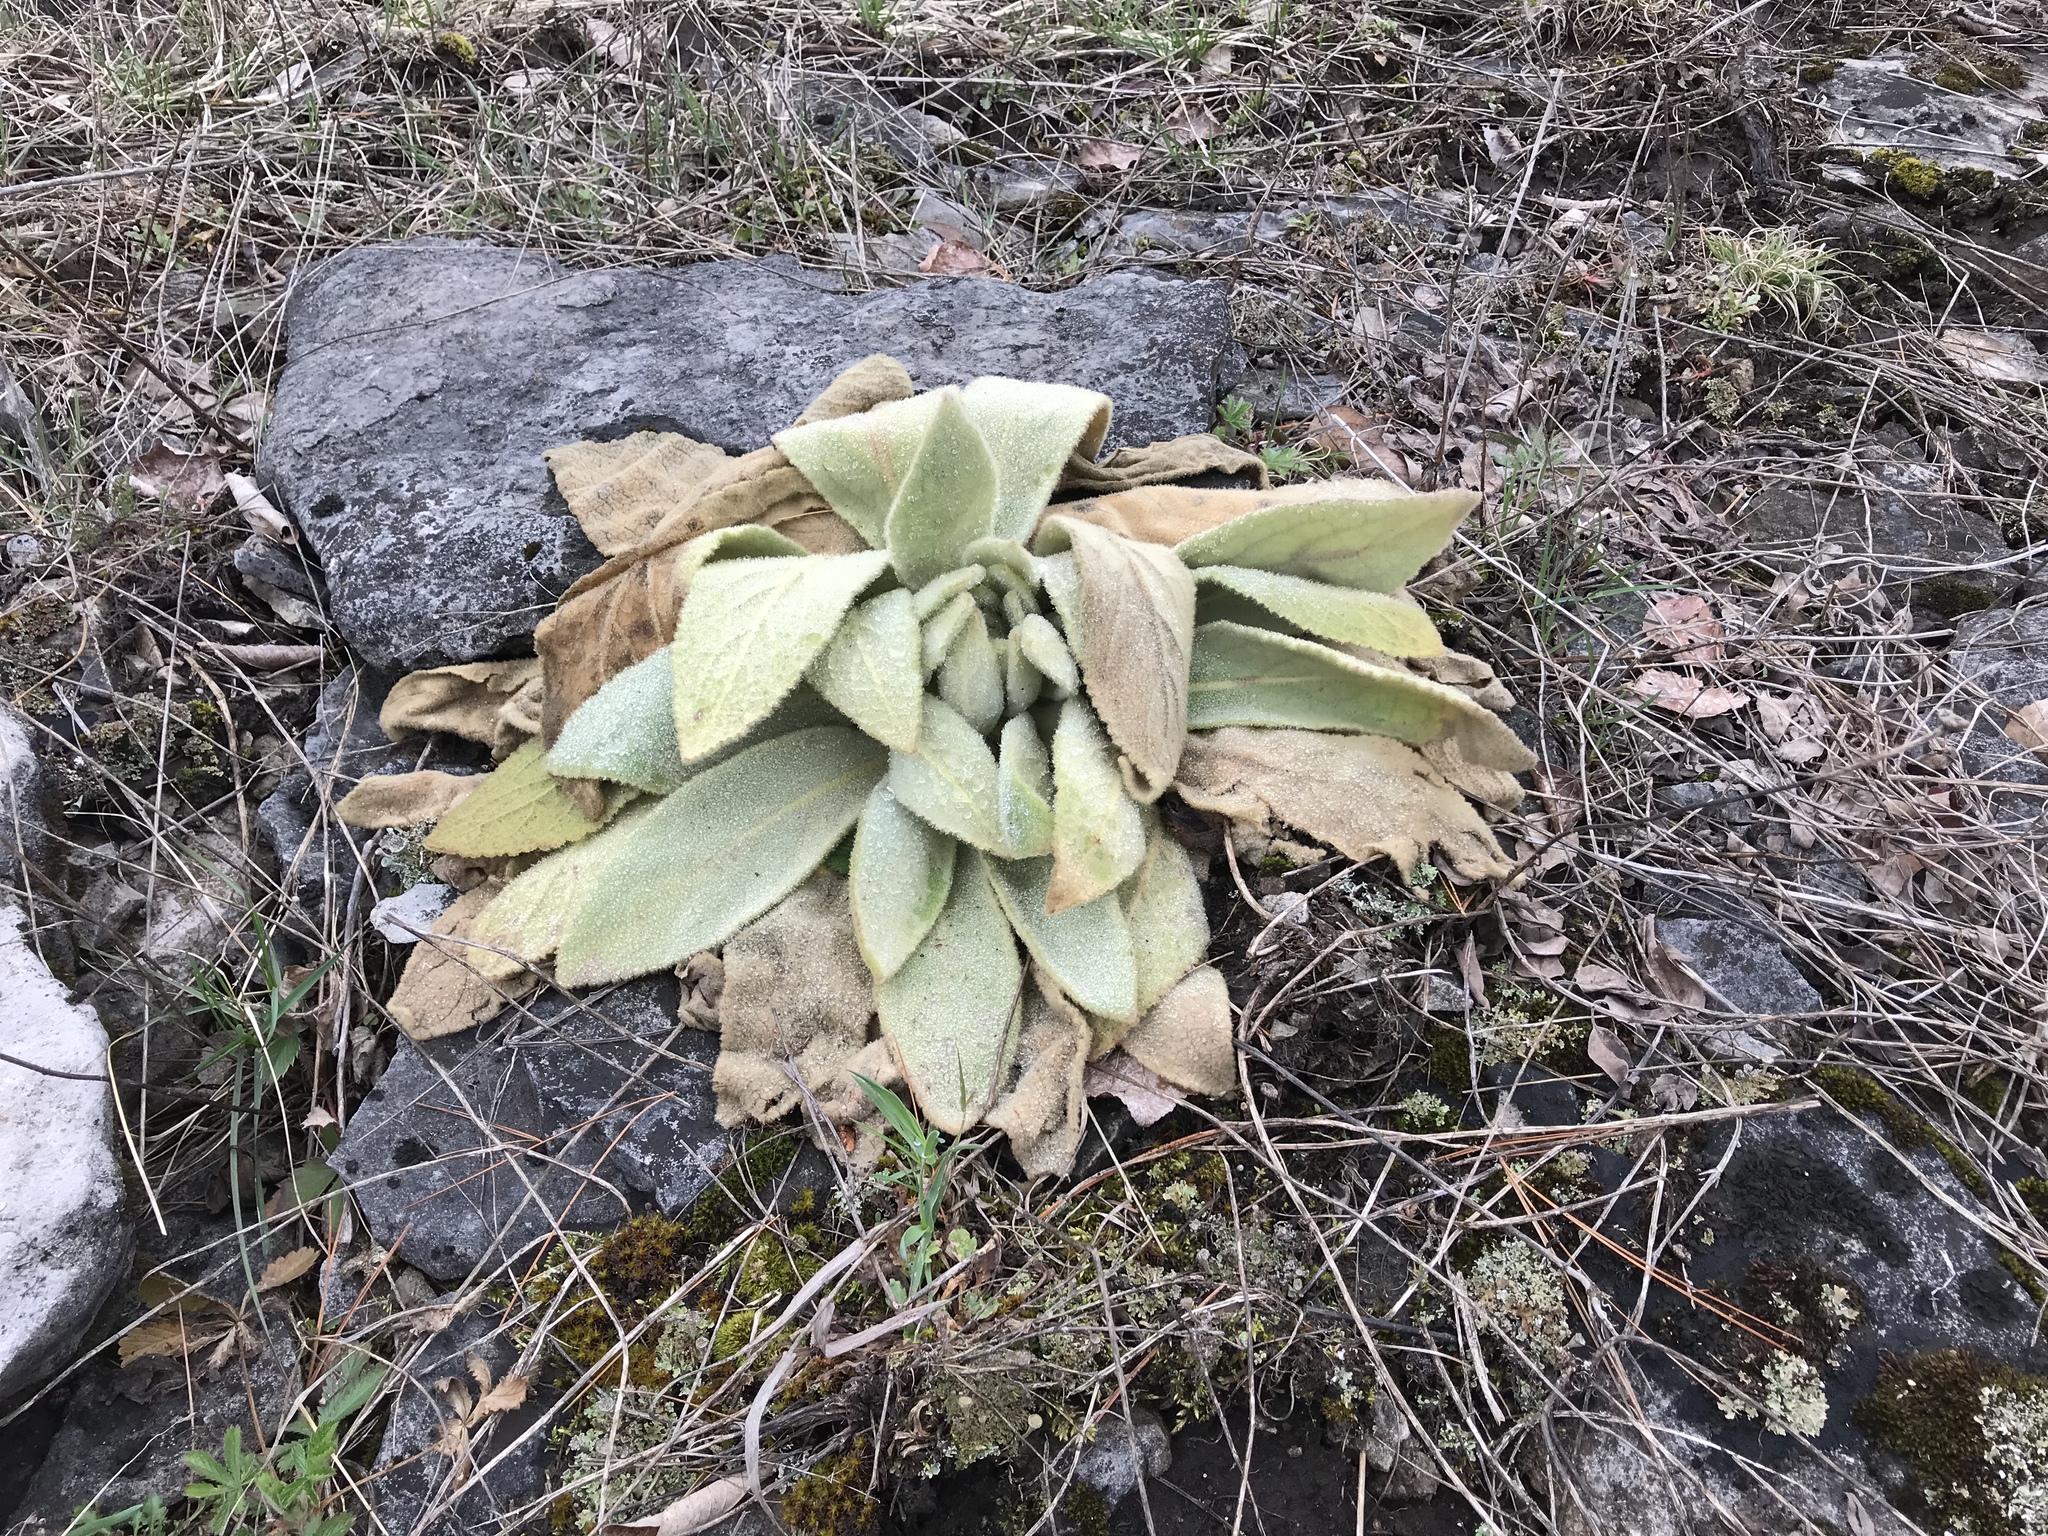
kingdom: Plantae
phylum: Tracheophyta
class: Magnoliopsida
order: Lamiales
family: Scrophulariaceae
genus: Verbascum
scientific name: Verbascum thapsus
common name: Common mullein
